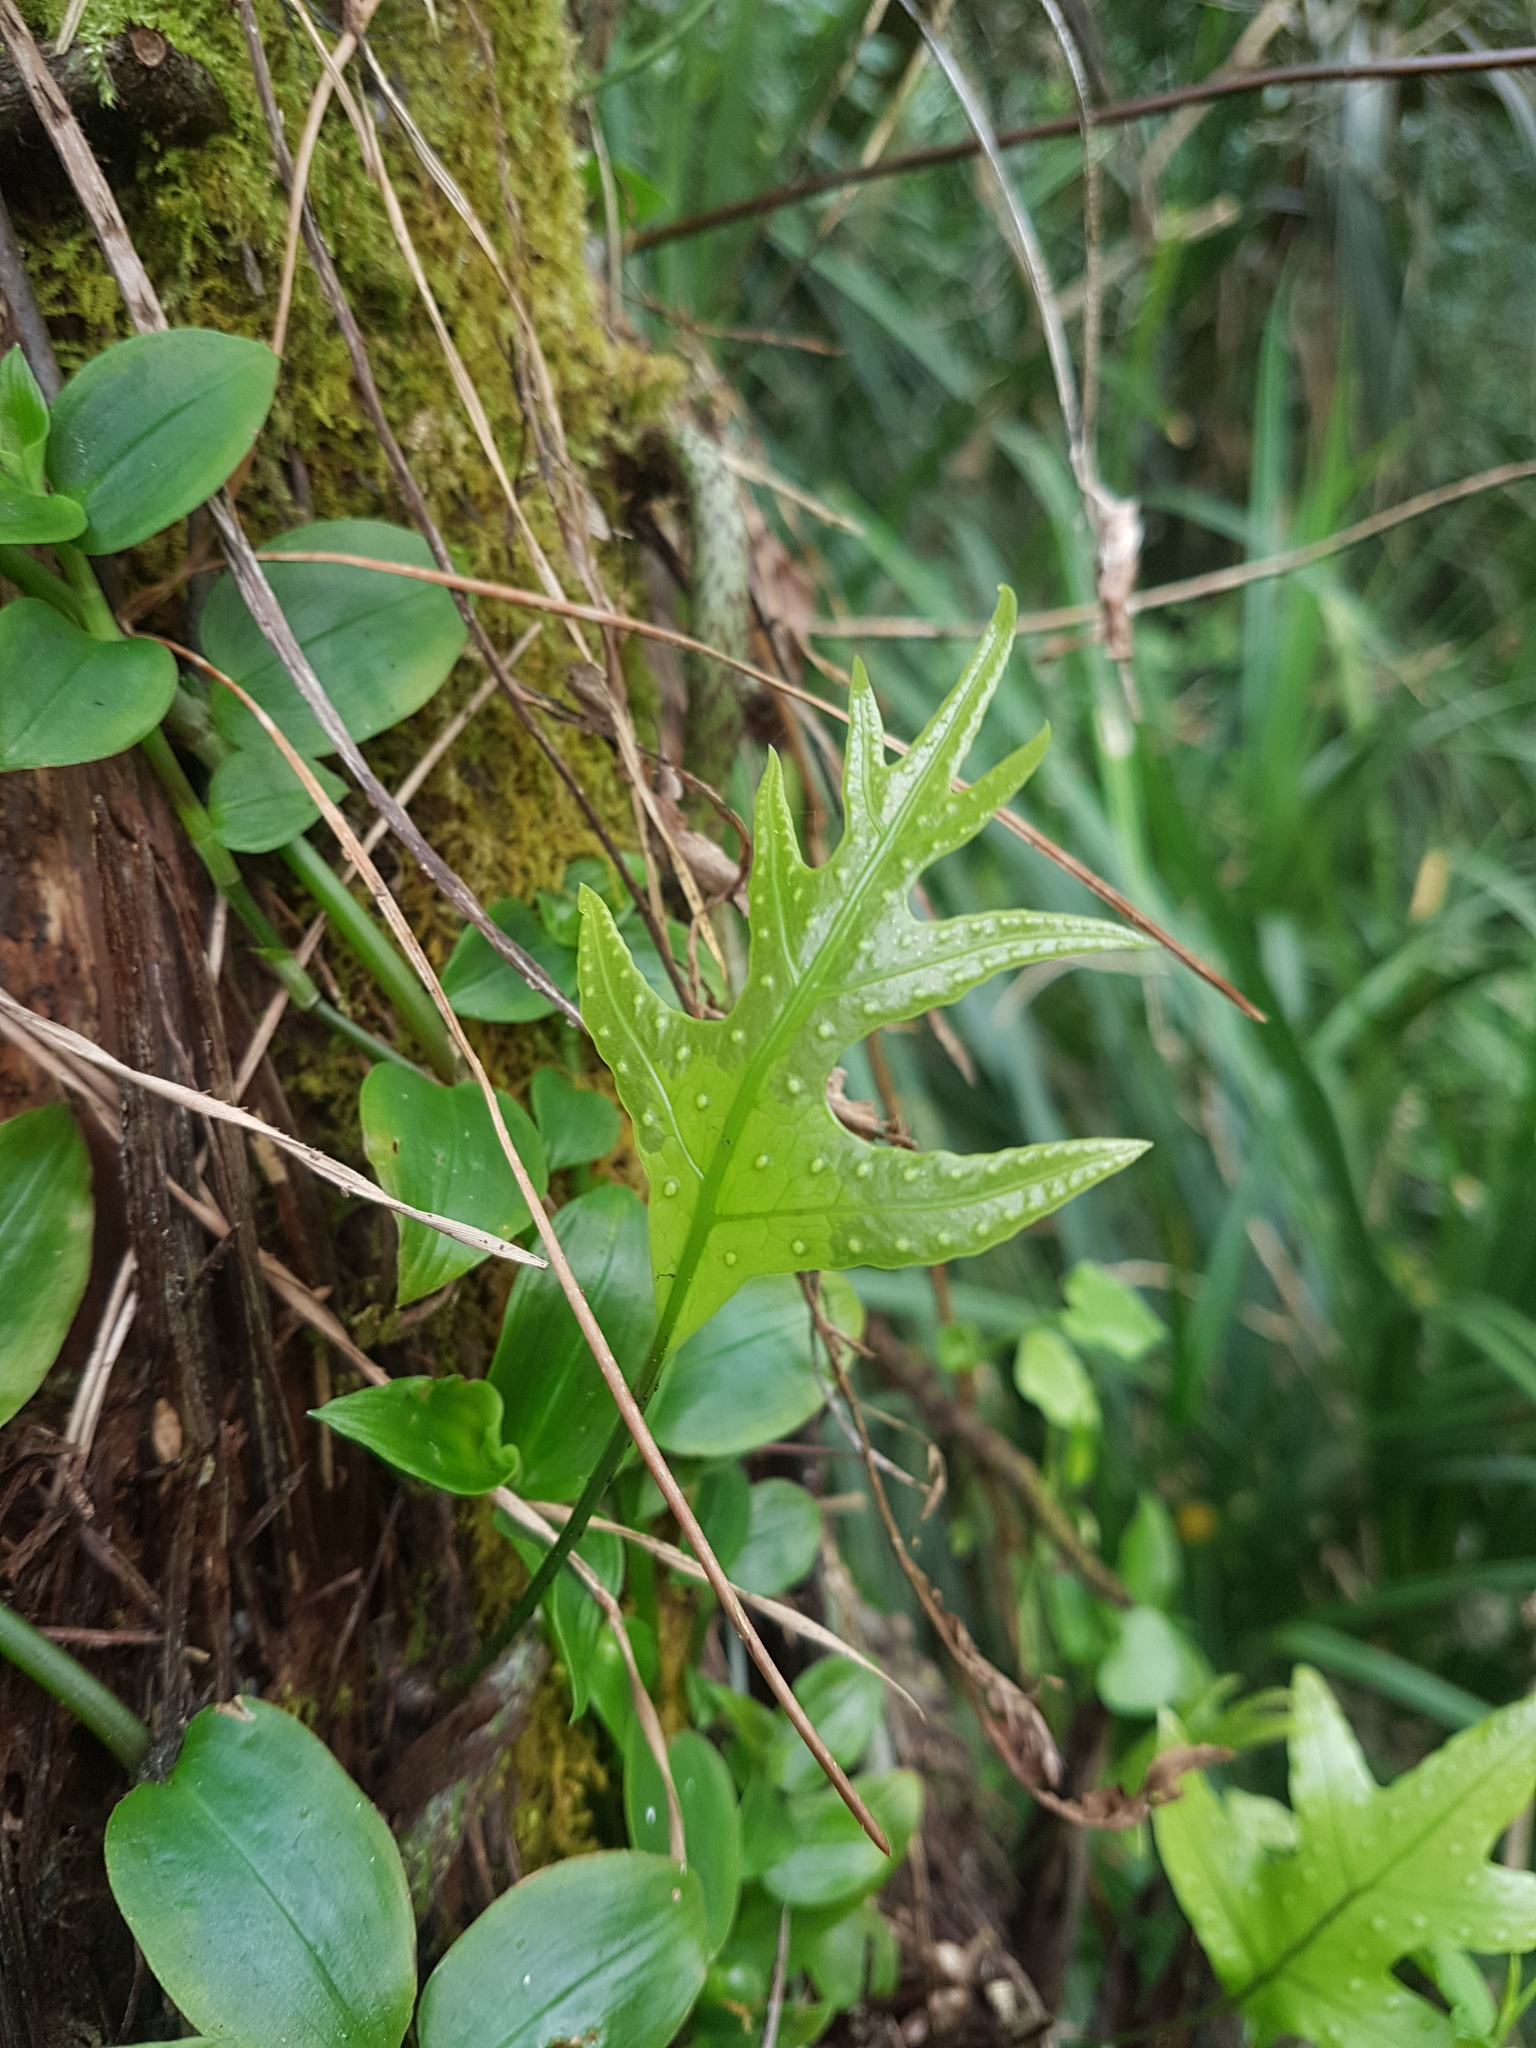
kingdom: Plantae
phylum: Tracheophyta
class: Polypodiopsida
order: Polypodiales
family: Polypodiaceae
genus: Lecanopteris
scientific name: Lecanopteris pustulata
